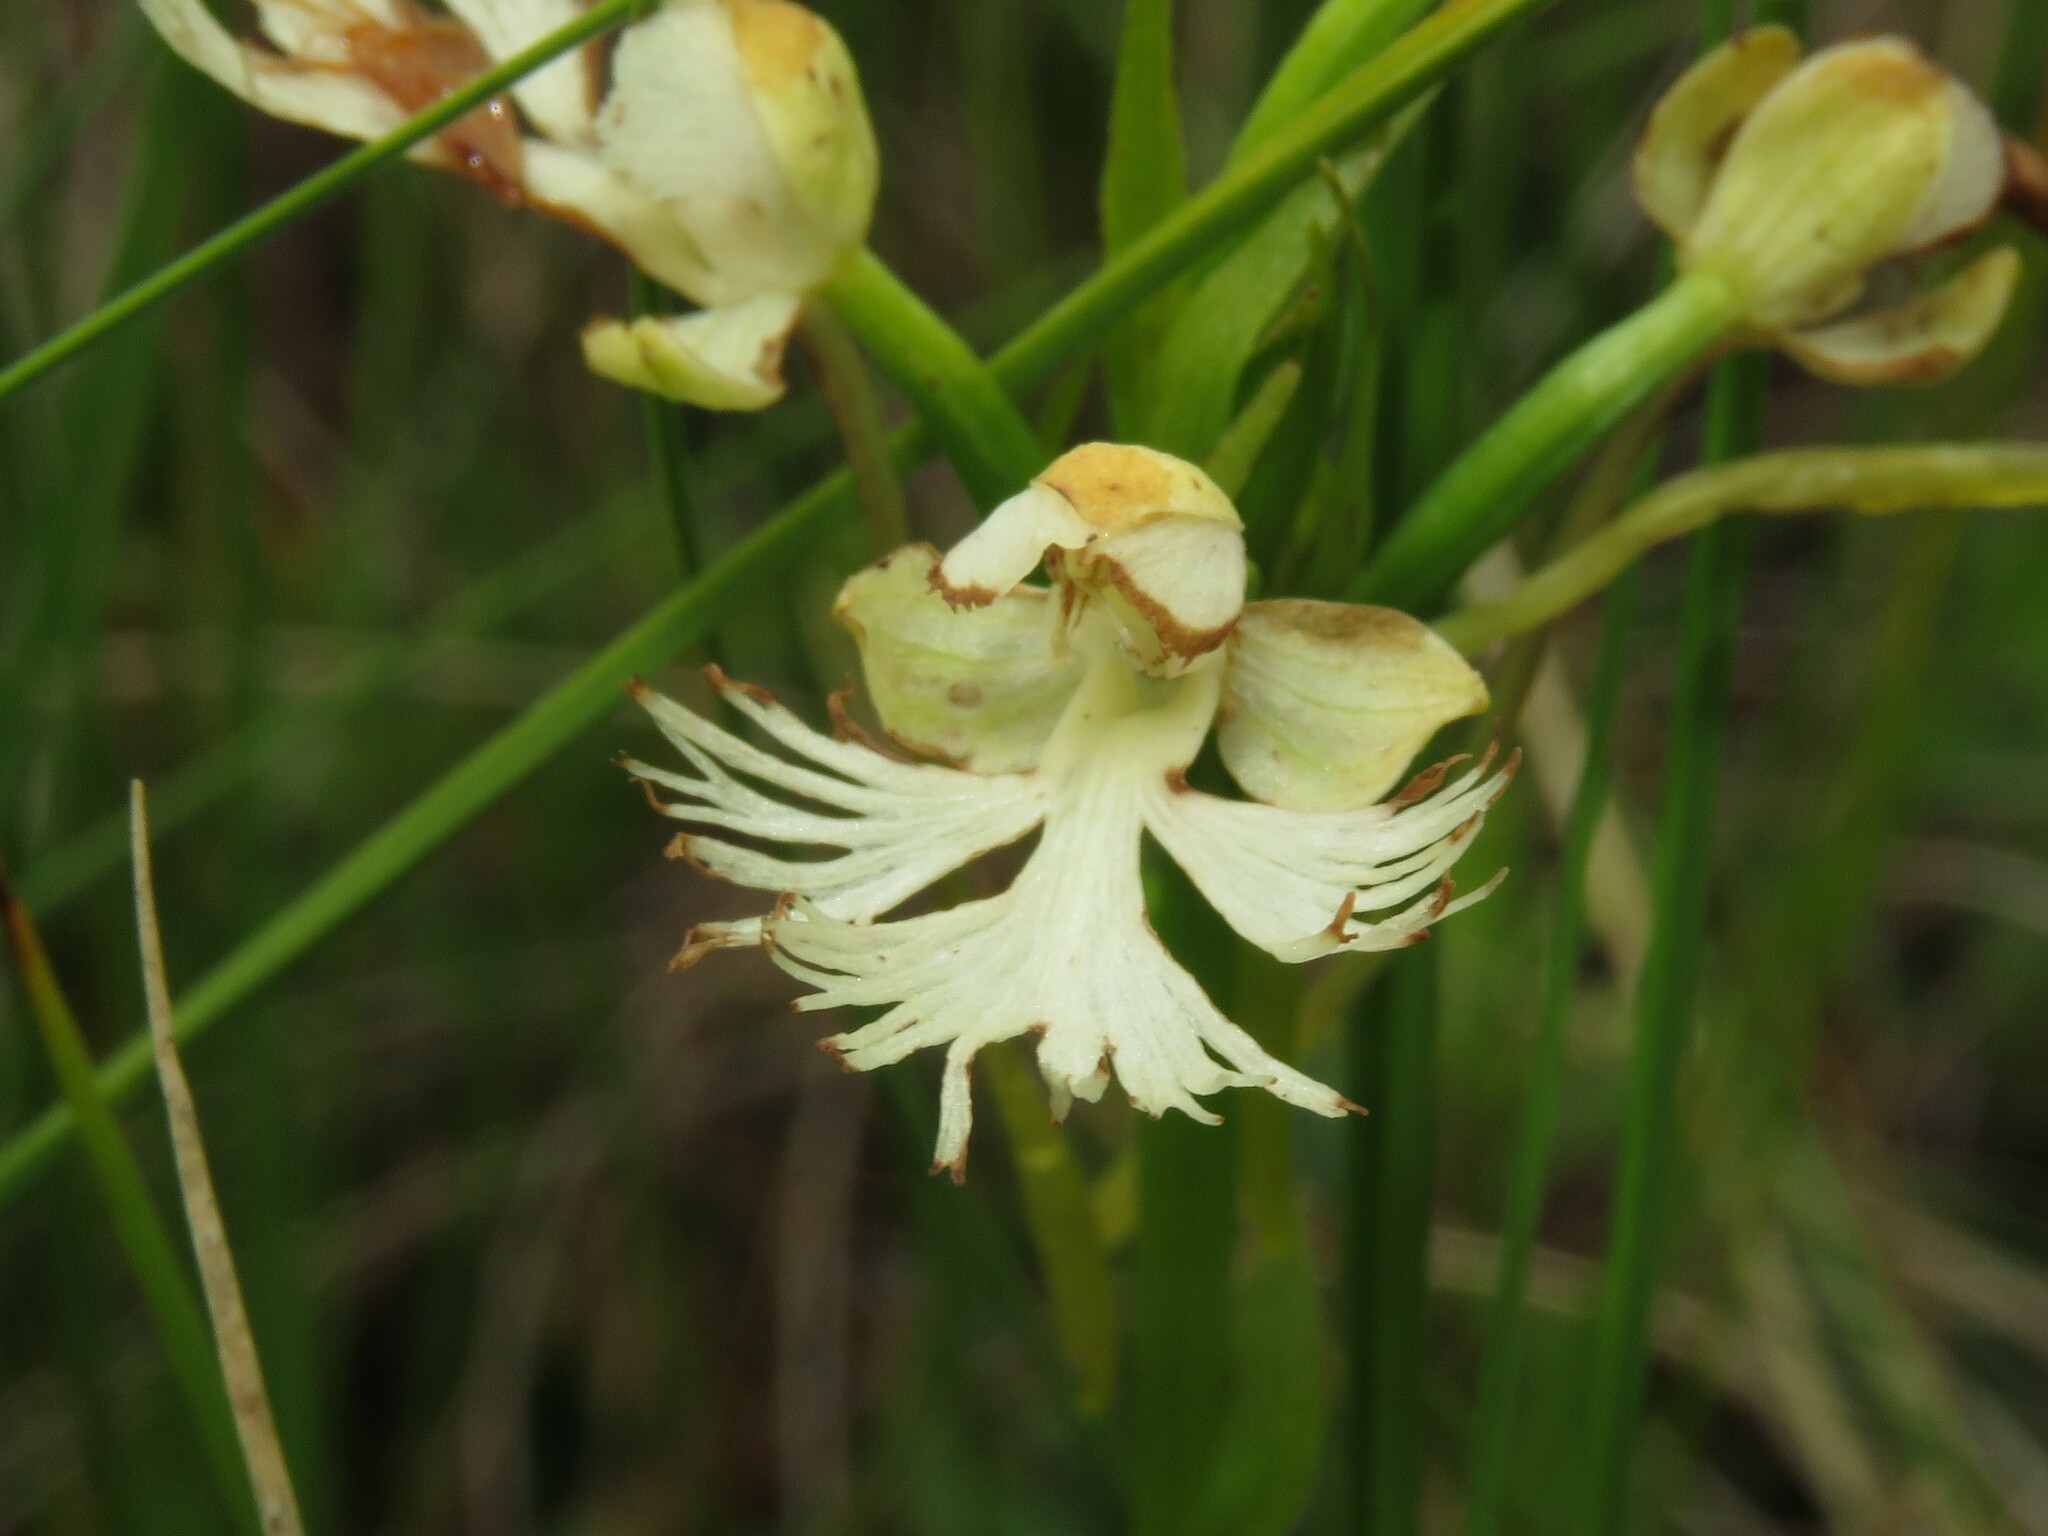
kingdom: Plantae
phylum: Tracheophyta
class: Liliopsida
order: Asparagales
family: Orchidaceae
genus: Platanthera
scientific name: Platanthera leucophaea
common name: Eastern prairie white-fringed orchid
